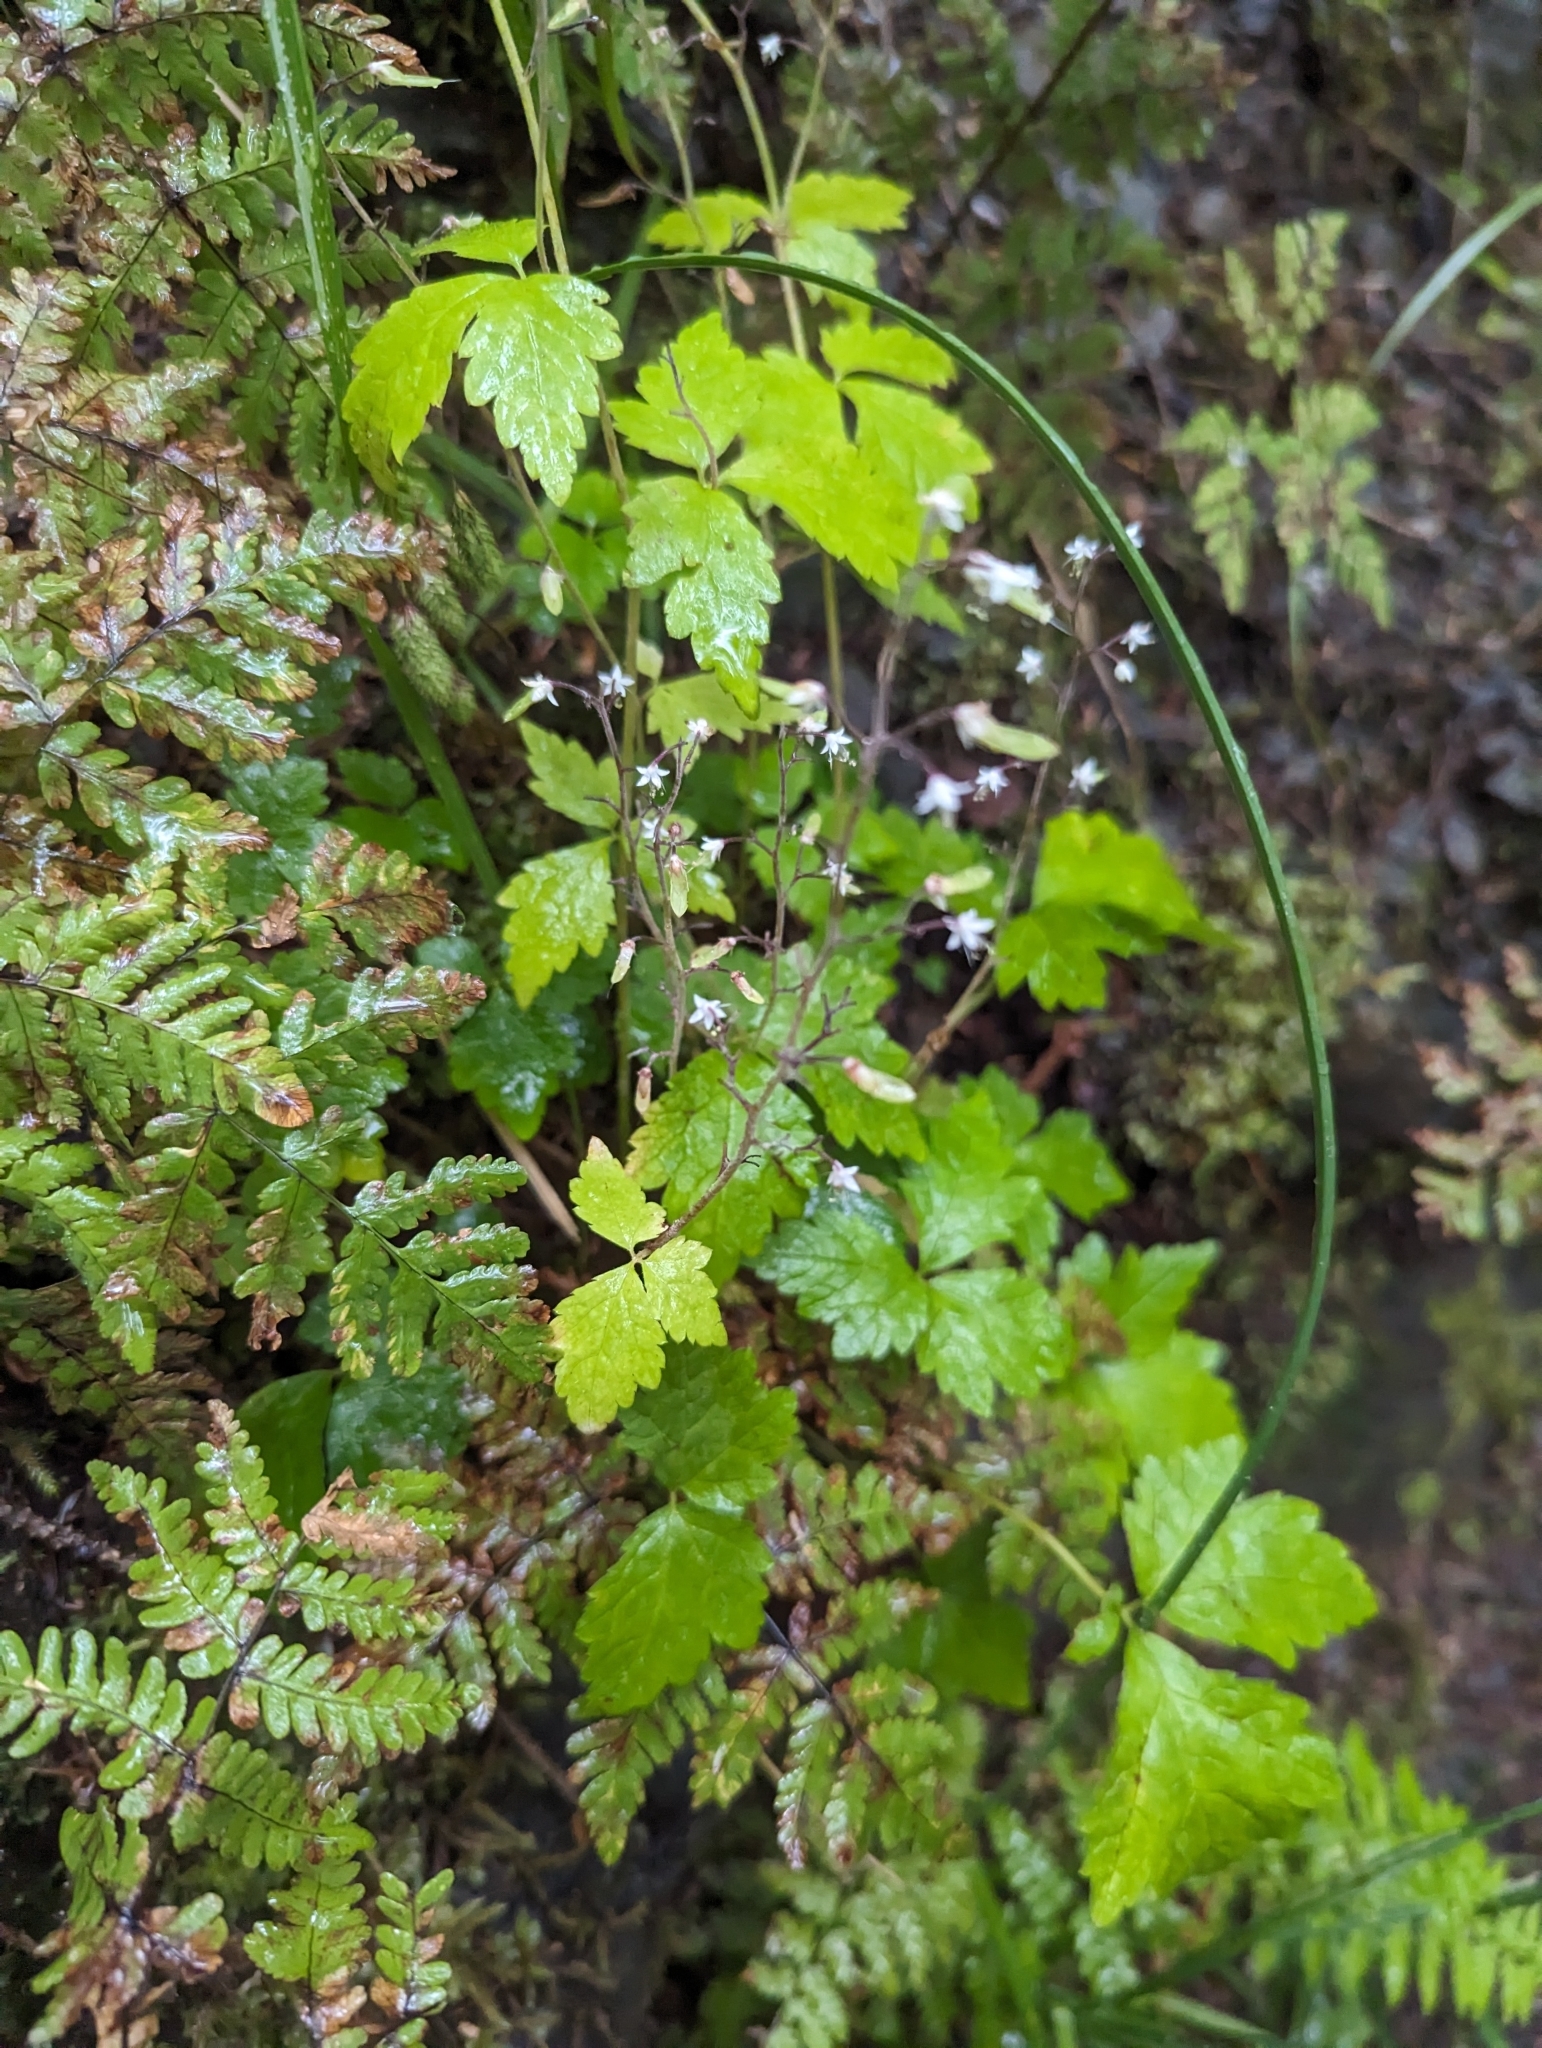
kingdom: Plantae
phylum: Tracheophyta
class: Magnoliopsida
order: Saxifragales
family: Saxifragaceae
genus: Tiarella
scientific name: Tiarella trifoliata
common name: Sugar-scoop
